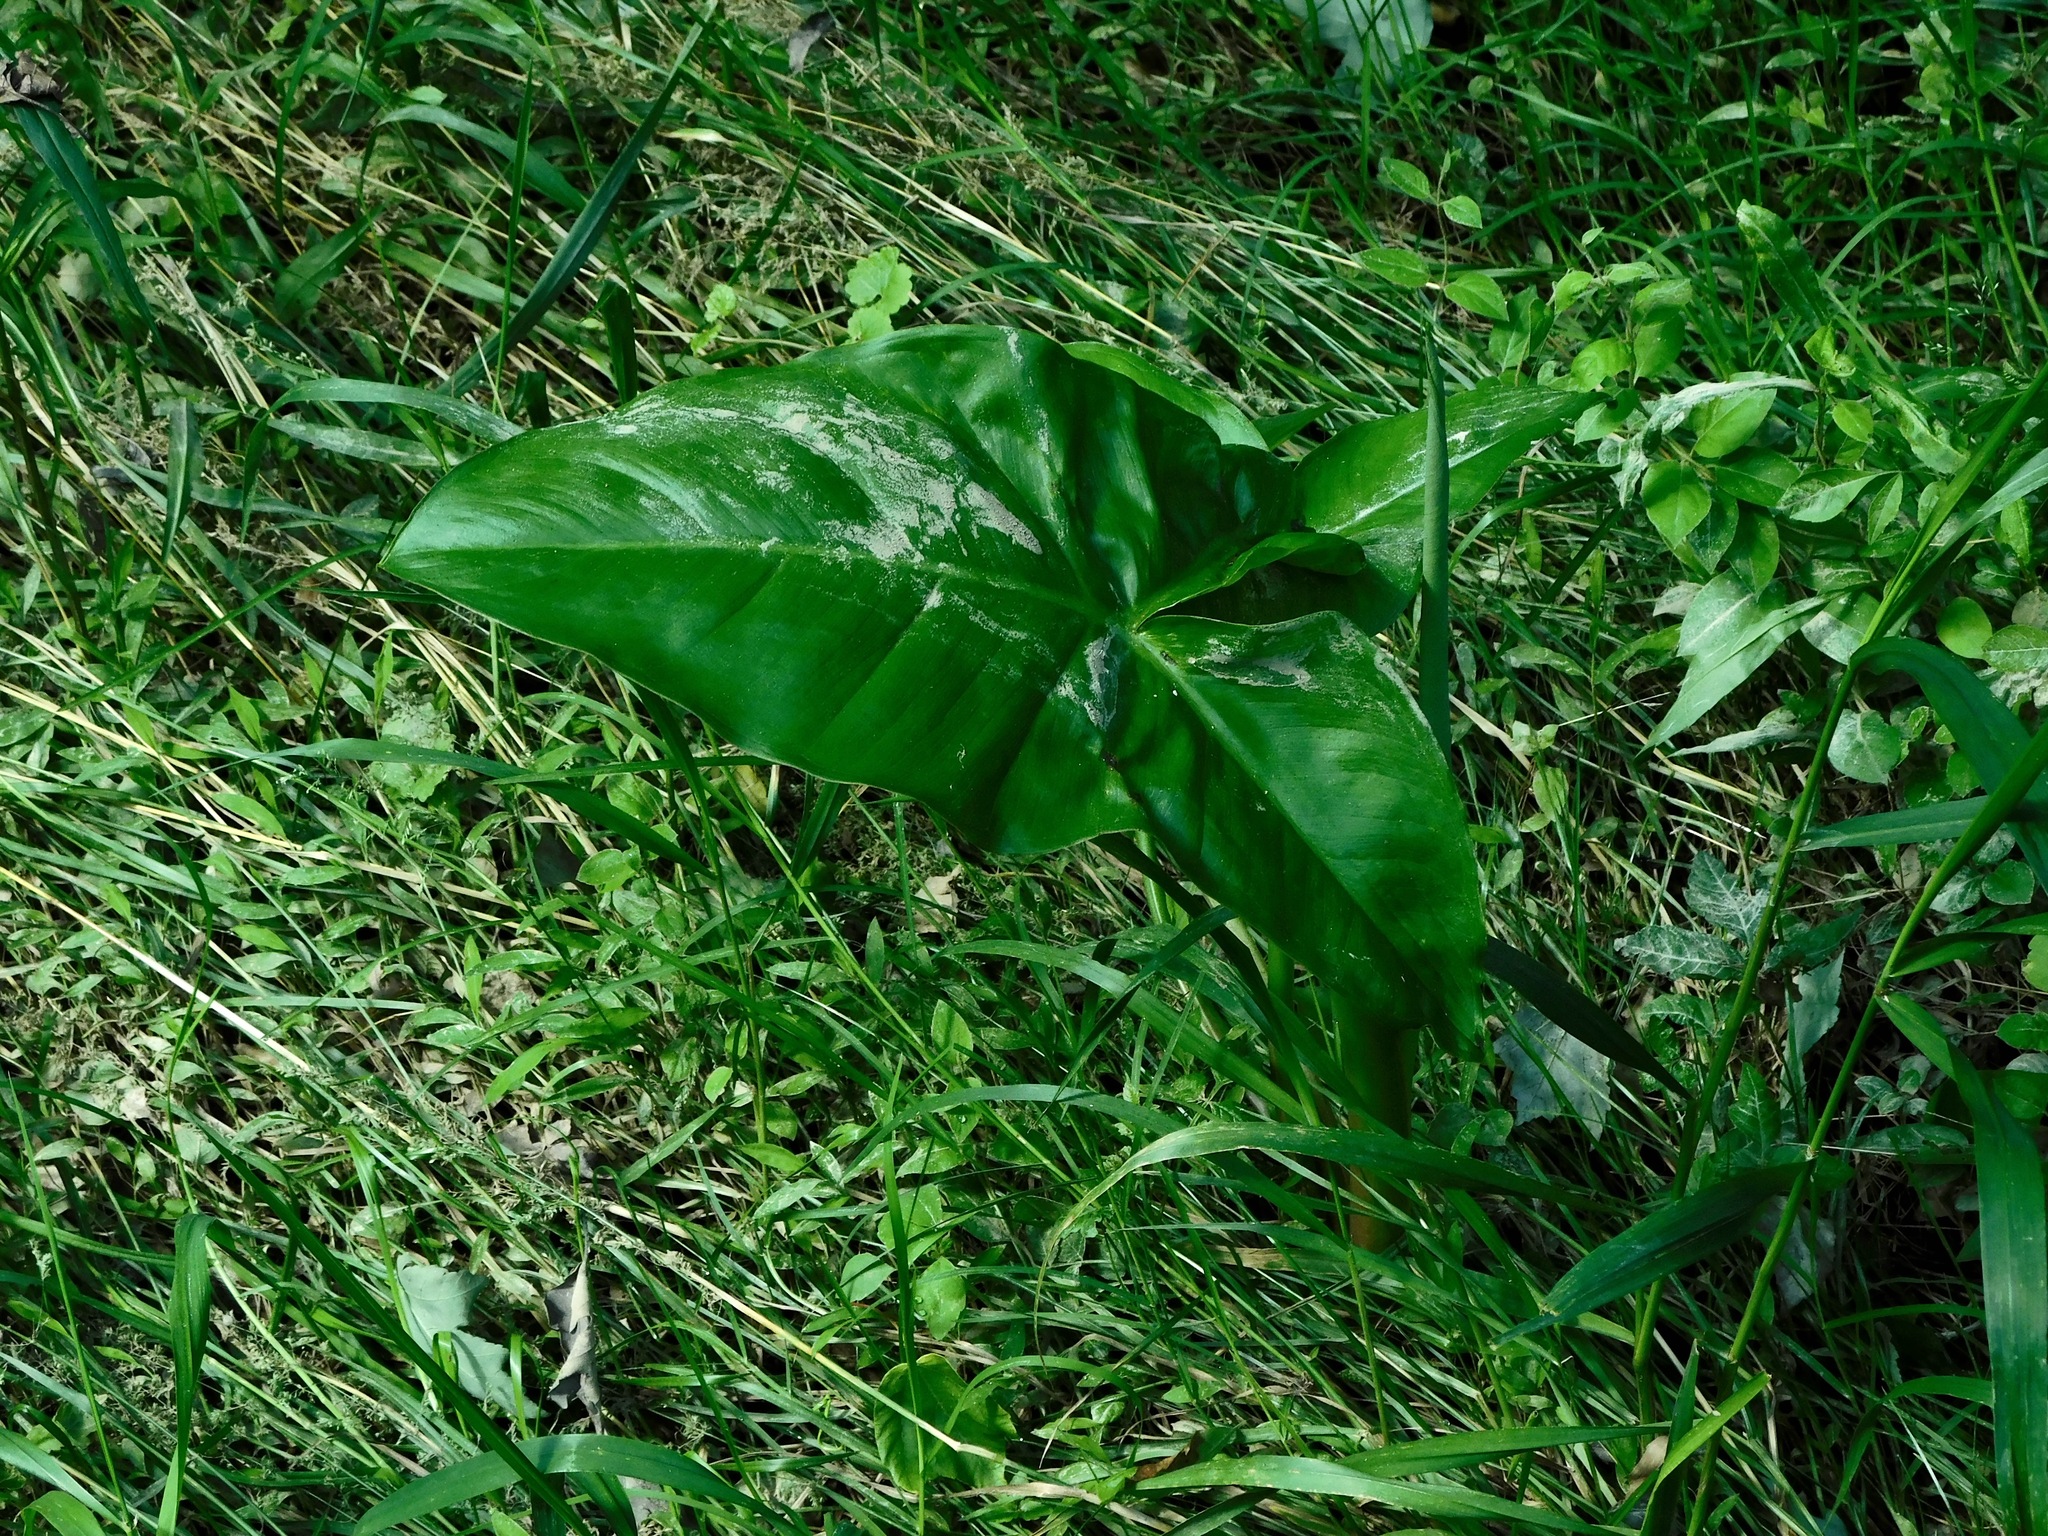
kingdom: Plantae
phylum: Tracheophyta
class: Liliopsida
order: Alismatales
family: Araceae
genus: Peltandra
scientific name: Peltandra virginica
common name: Arrow arum
